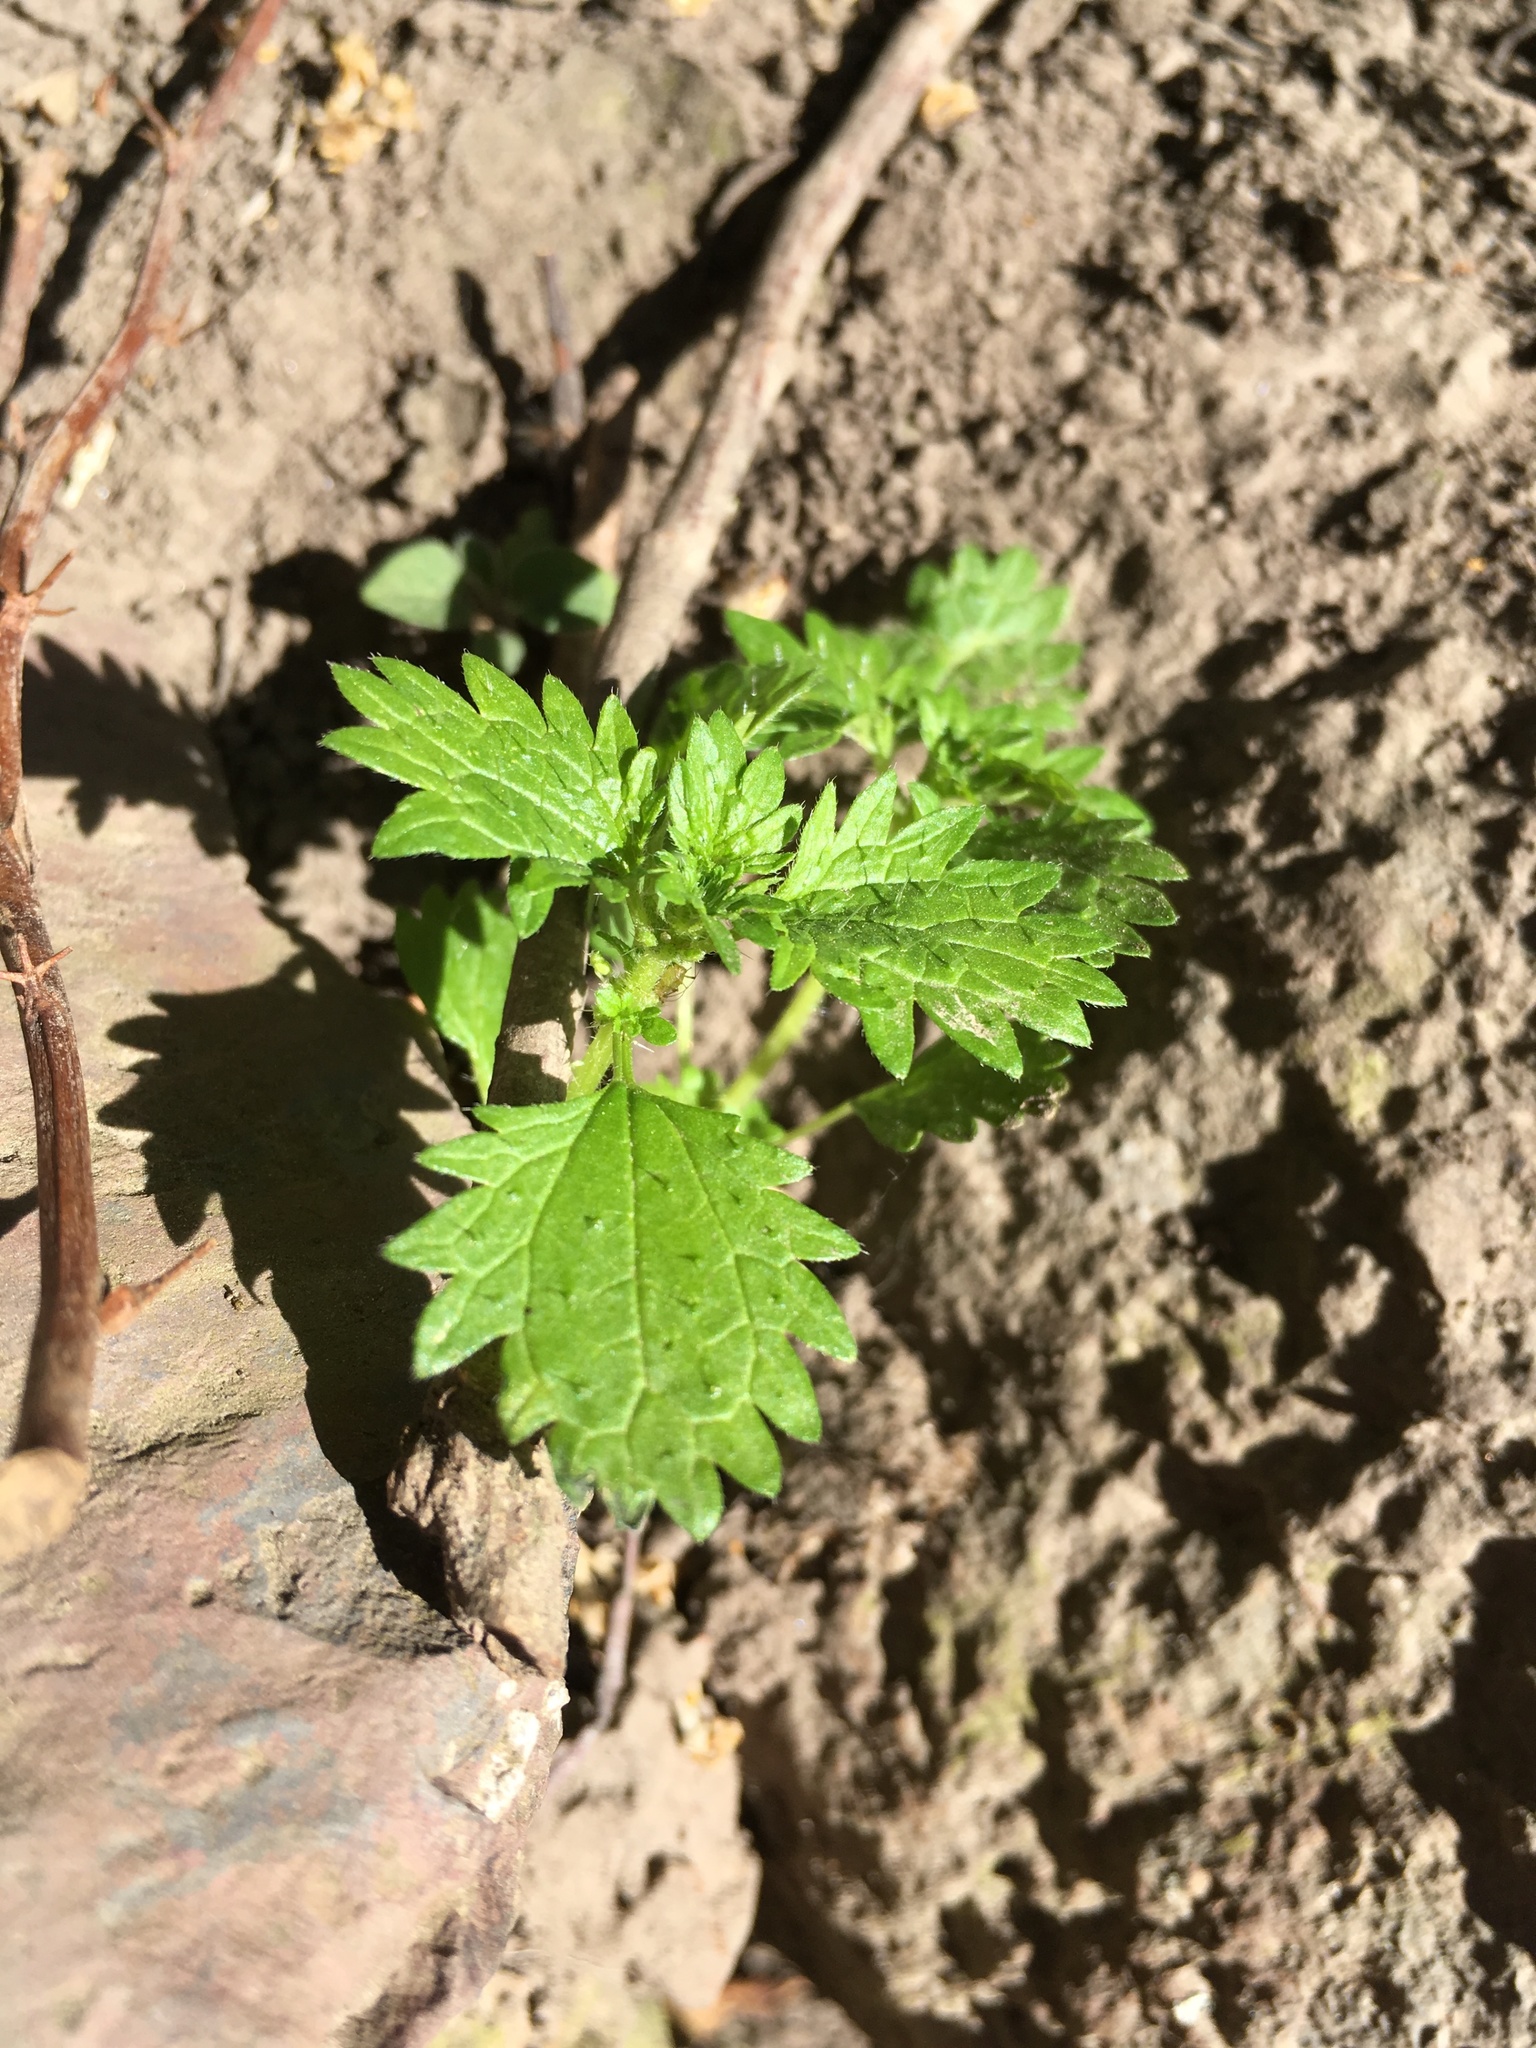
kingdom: Plantae
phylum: Tracheophyta
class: Magnoliopsida
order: Rosales
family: Urticaceae
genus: Urtica
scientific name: Urtica urens
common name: Dwarf nettle
